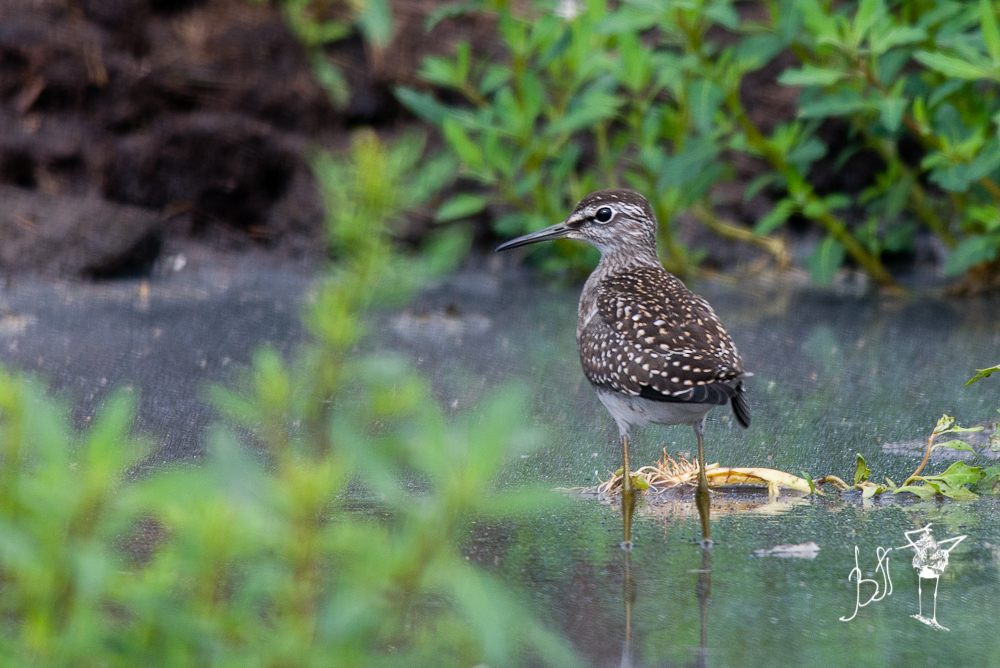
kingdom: Animalia
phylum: Chordata
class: Aves
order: Charadriiformes
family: Scolopacidae
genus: Tringa
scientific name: Tringa glareola
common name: Wood sandpiper
